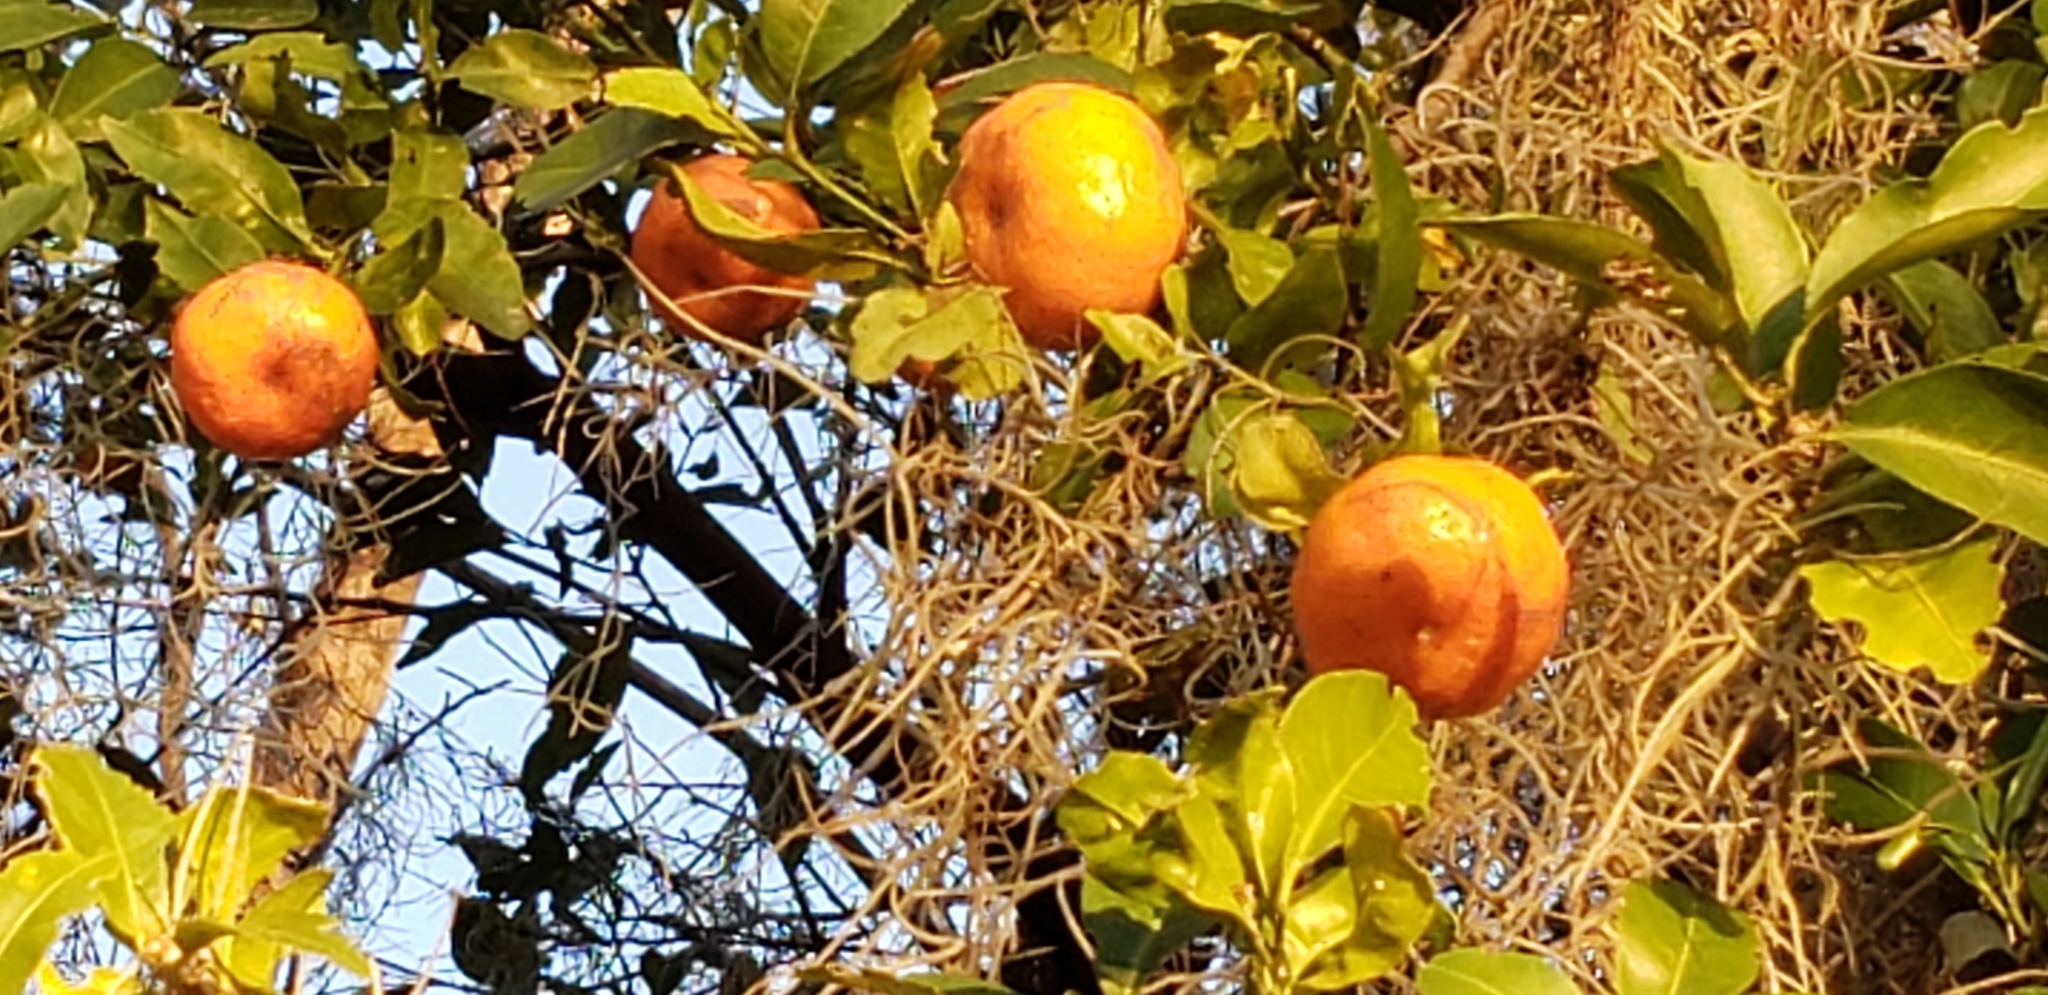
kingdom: Plantae
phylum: Tracheophyta
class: Magnoliopsida
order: Sapindales
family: Rutaceae
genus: Citrus
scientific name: Citrus
